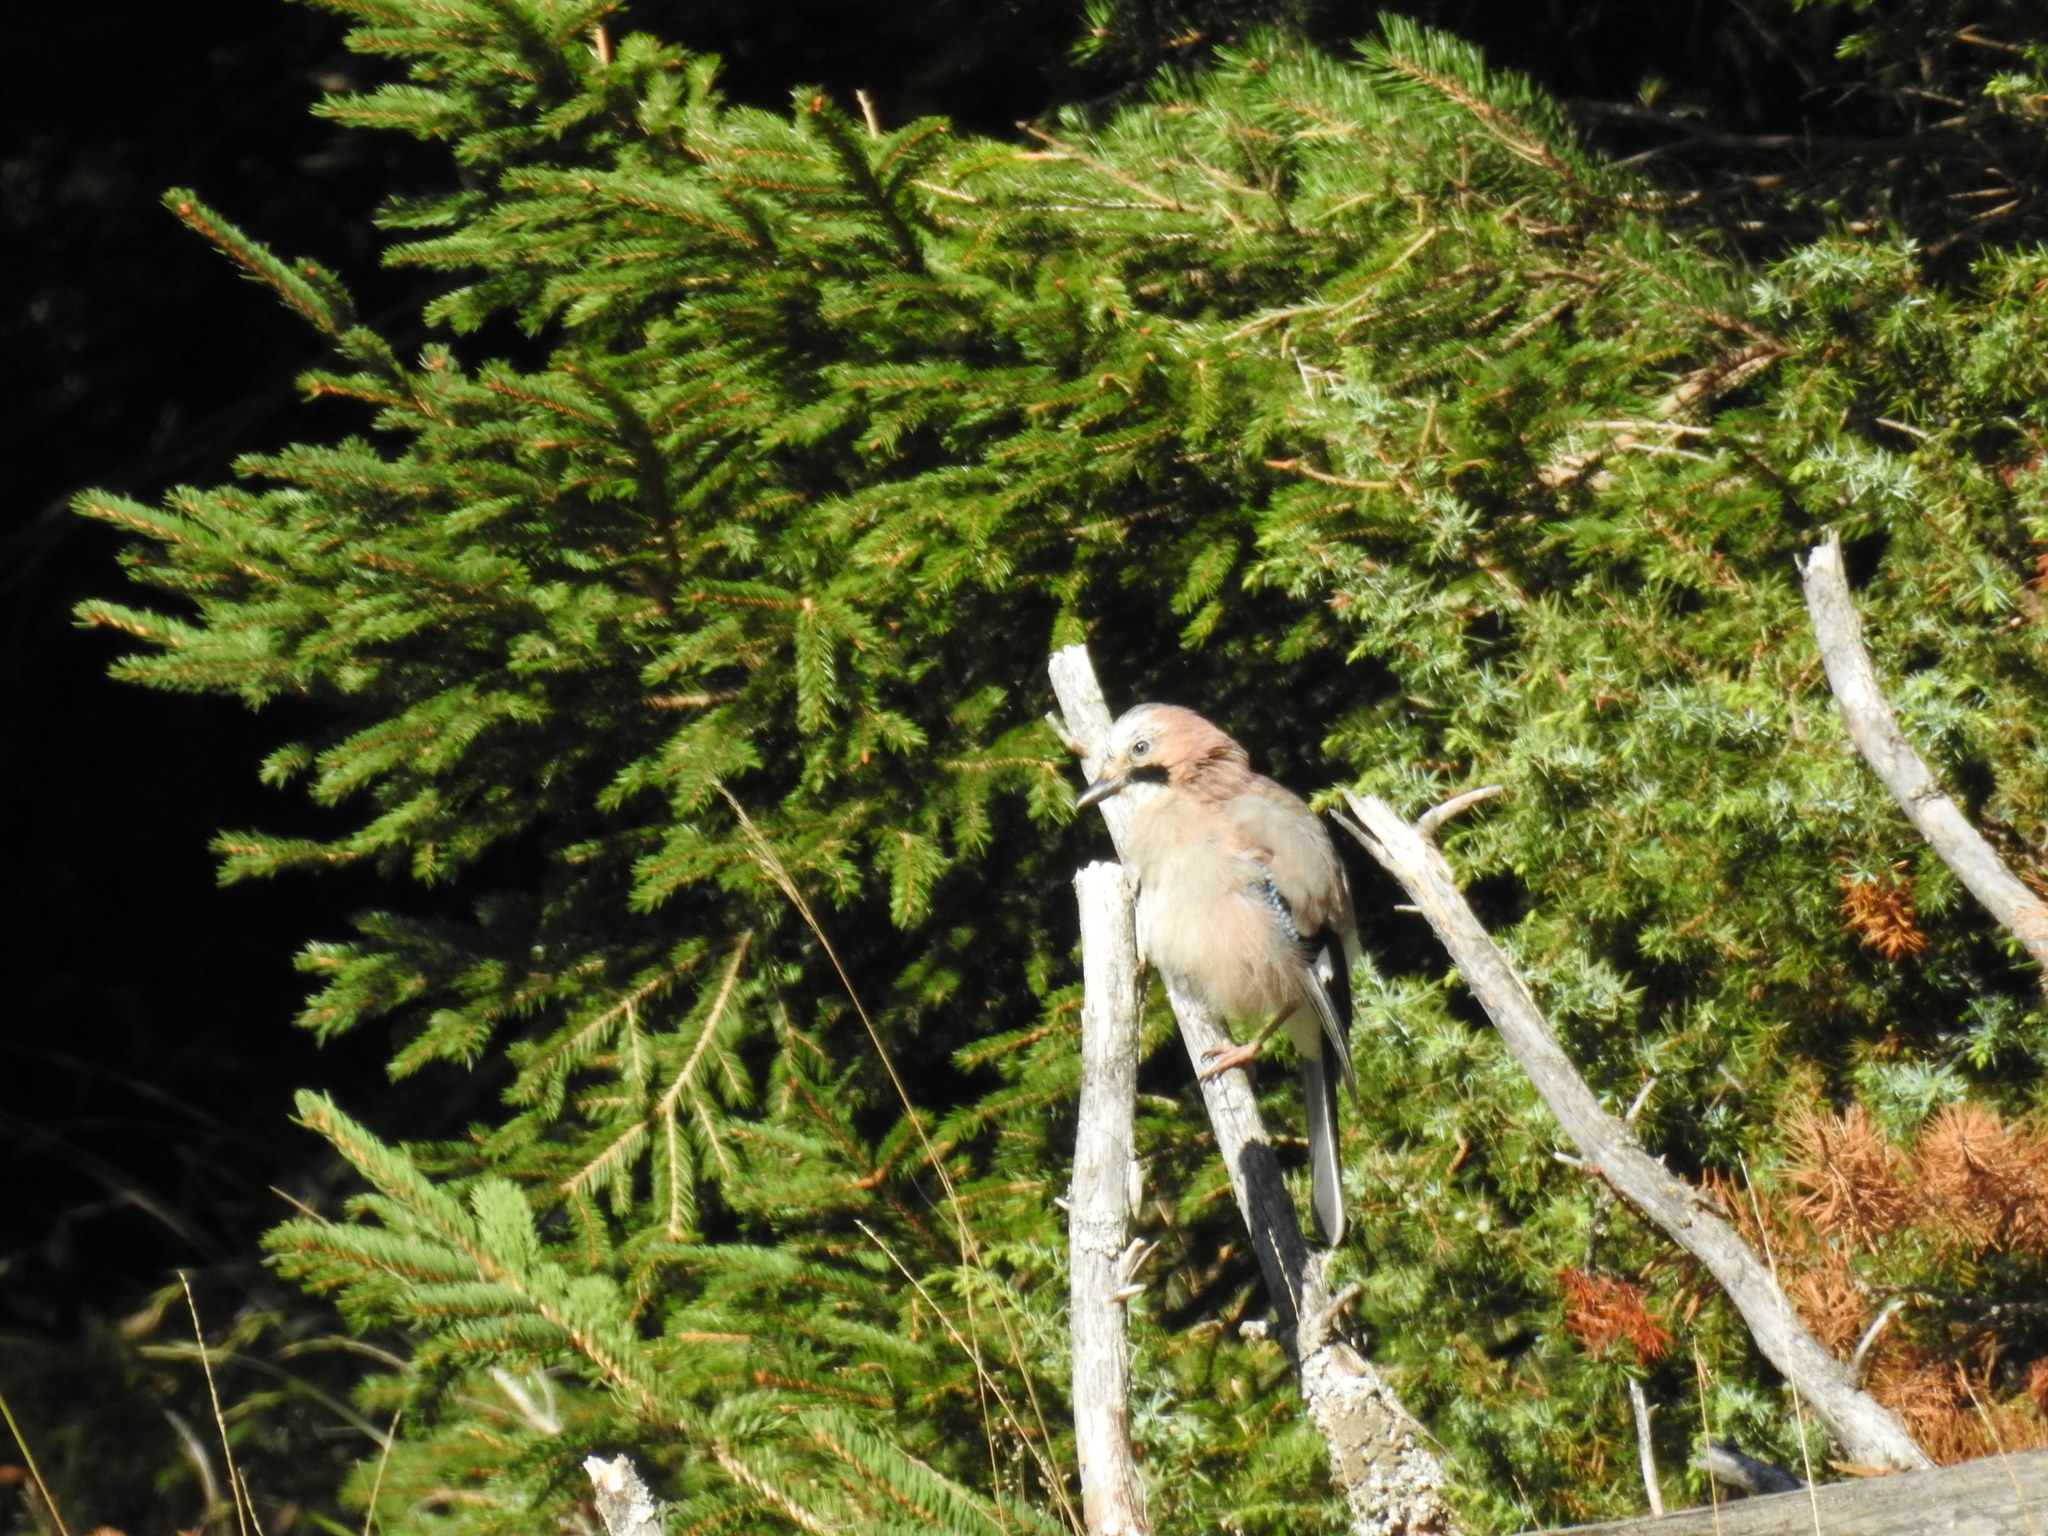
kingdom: Animalia
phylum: Chordata
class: Aves
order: Passeriformes
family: Corvidae
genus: Garrulus
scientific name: Garrulus glandarius
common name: Eurasian jay
